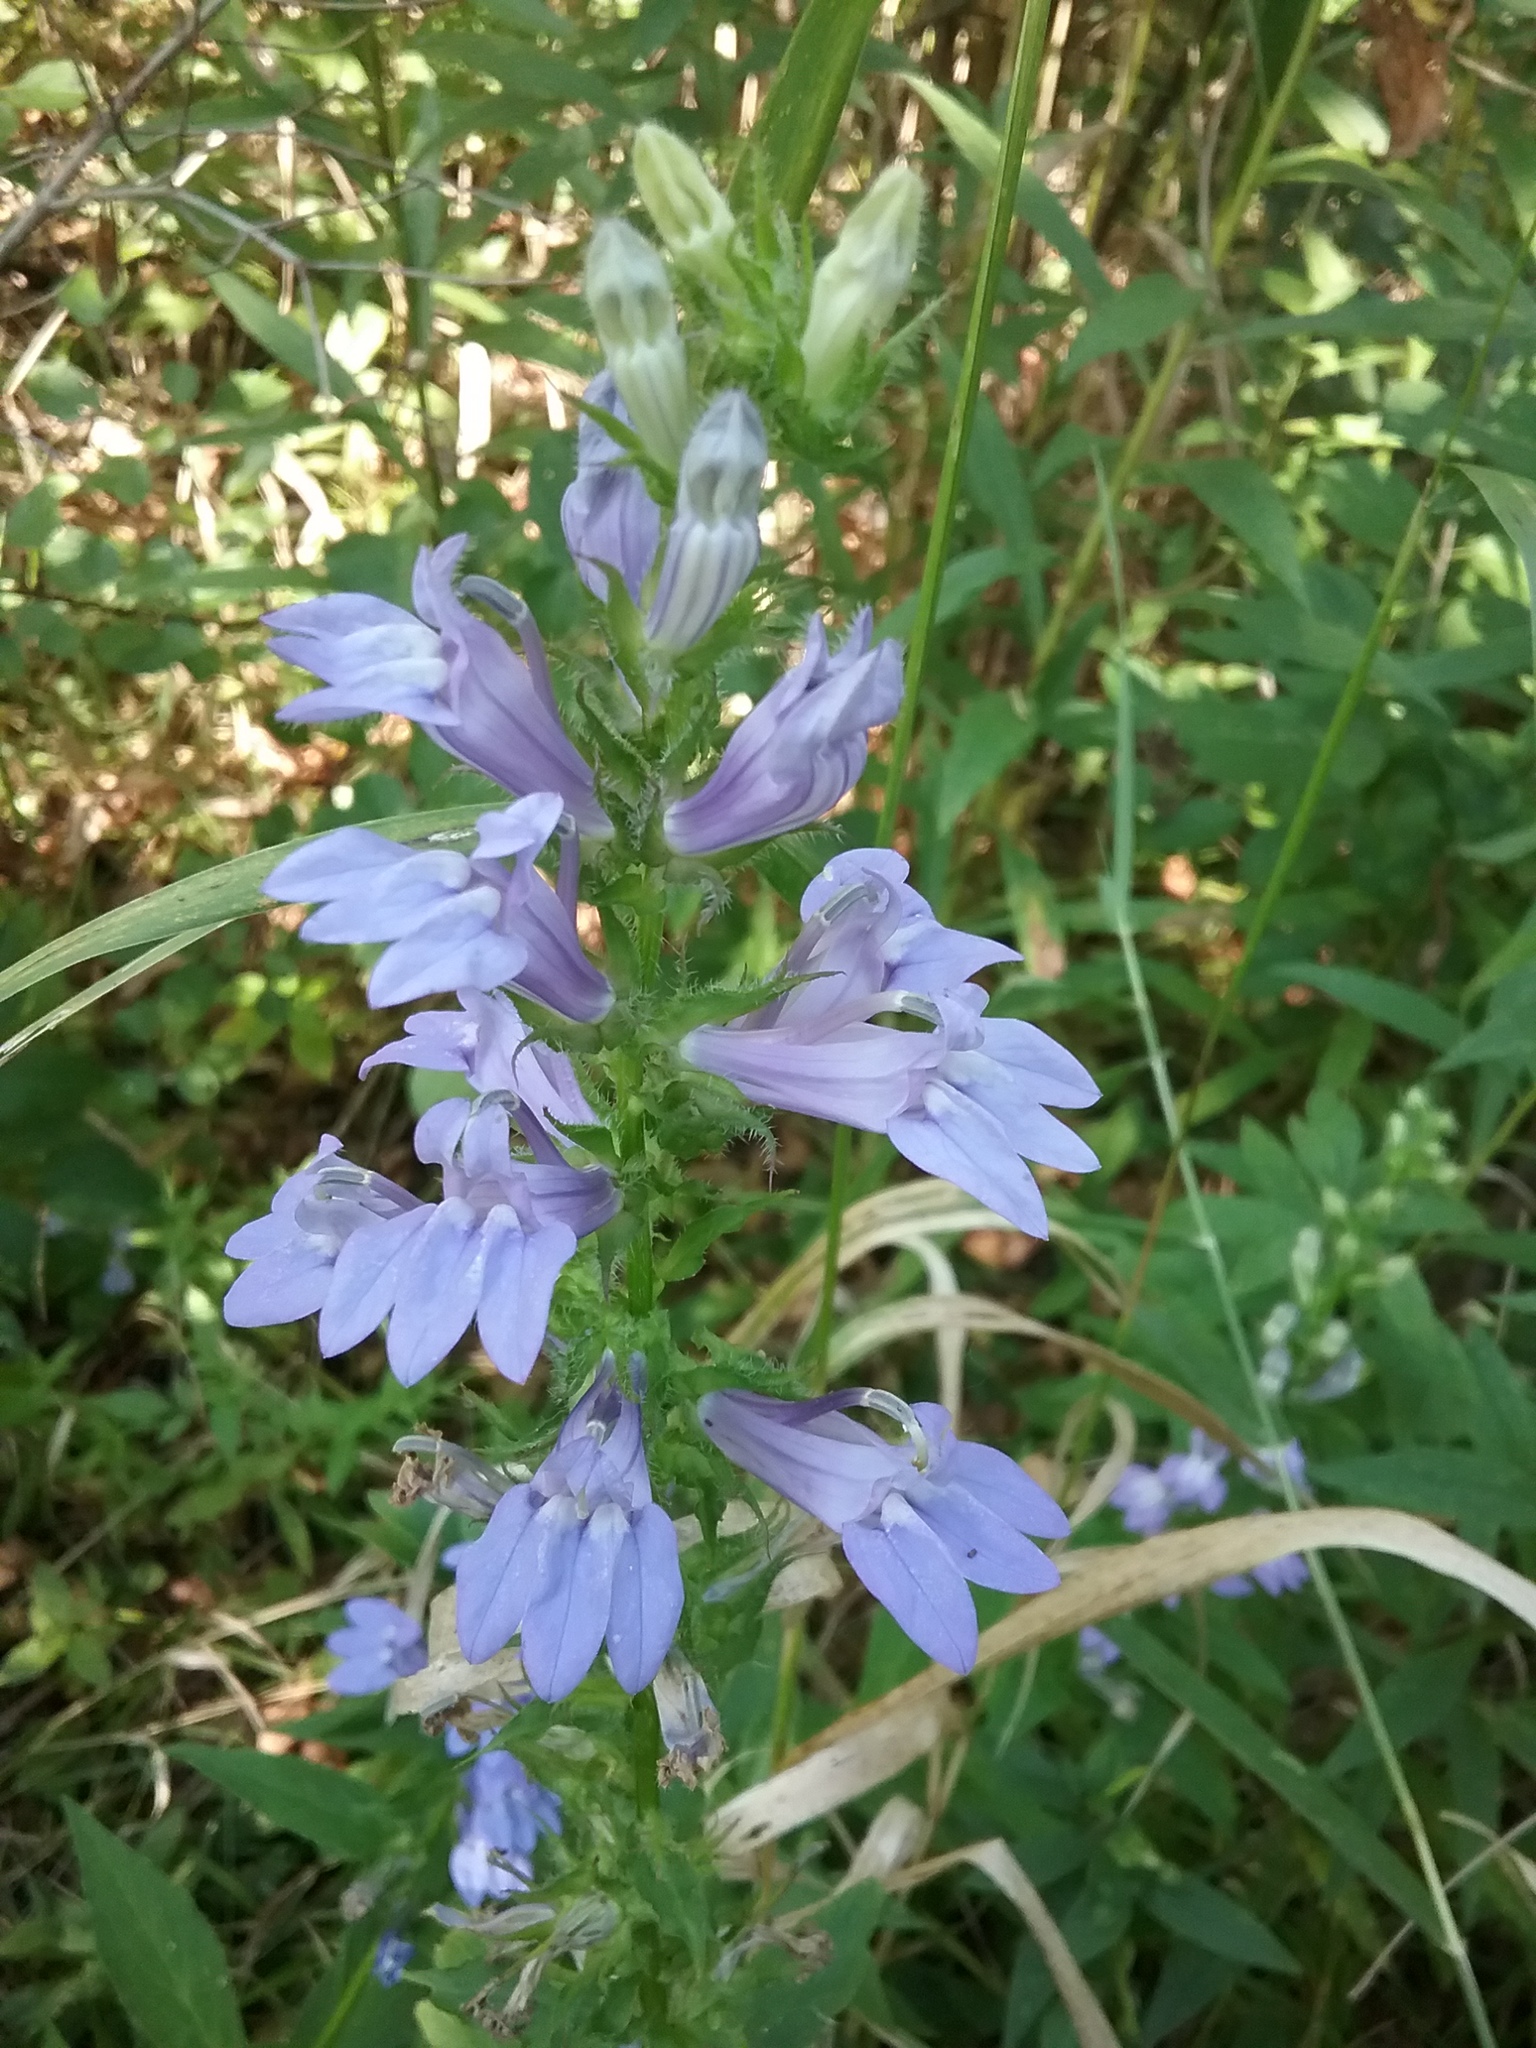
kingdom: Plantae
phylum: Tracheophyta
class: Magnoliopsida
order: Asterales
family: Campanulaceae
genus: Lobelia
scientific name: Lobelia siphilitica
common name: Great lobelia
